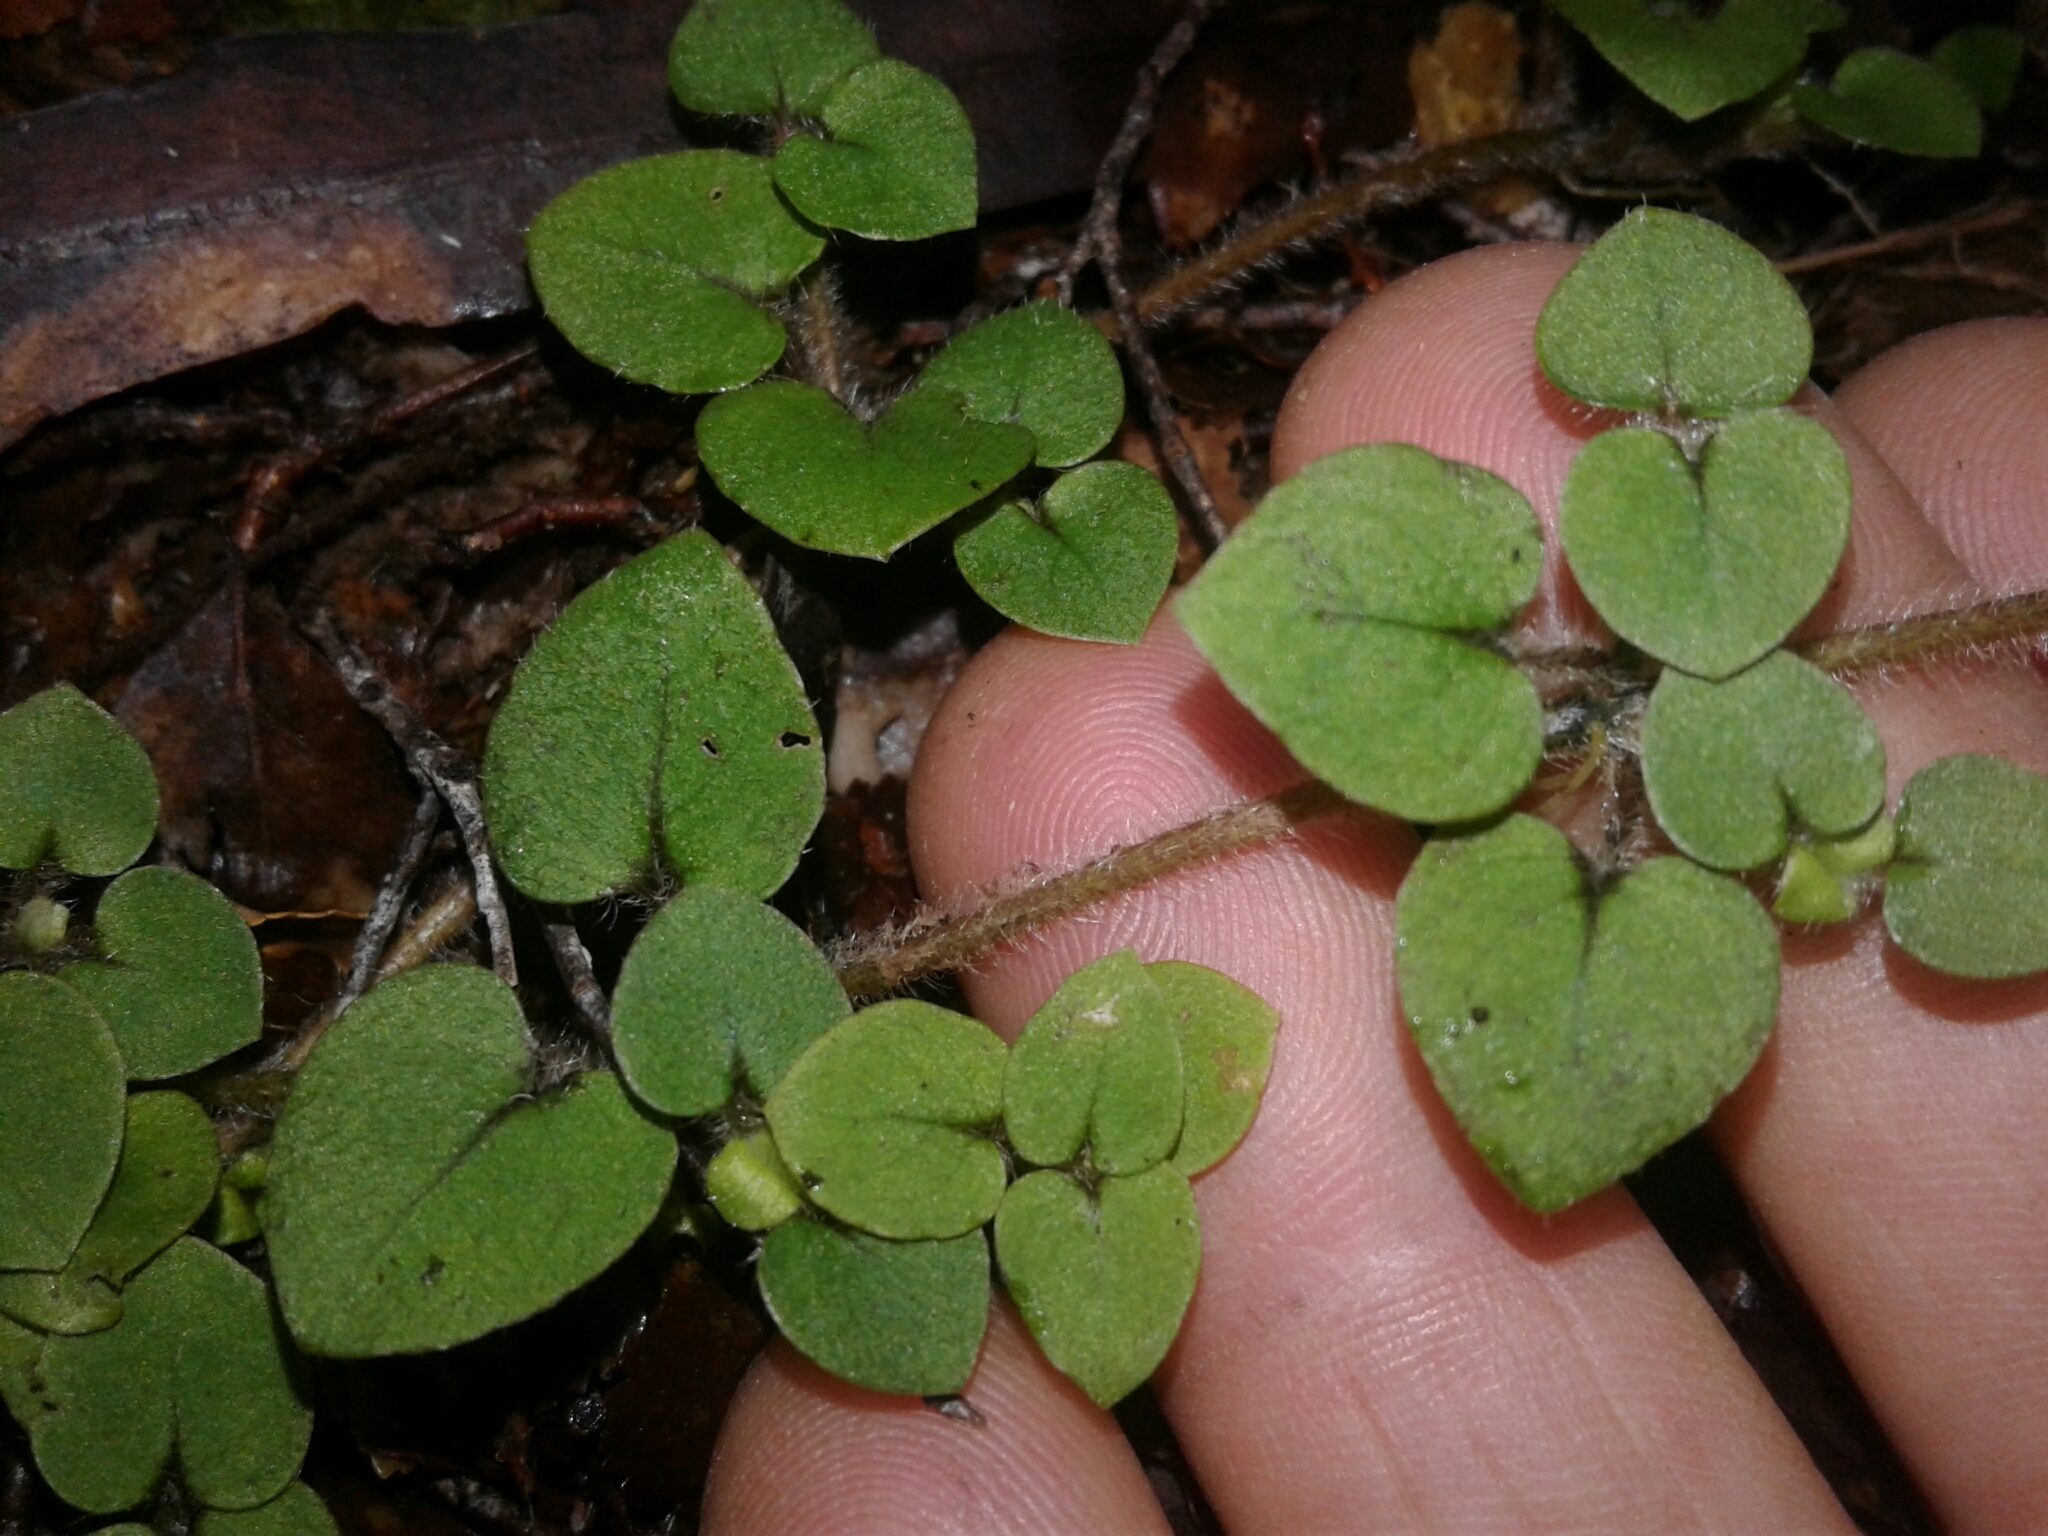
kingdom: Plantae
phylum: Tracheophyta
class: Magnoliopsida
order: Gentianales
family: Rubiaceae
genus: Nertera
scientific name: Nertera villosa
